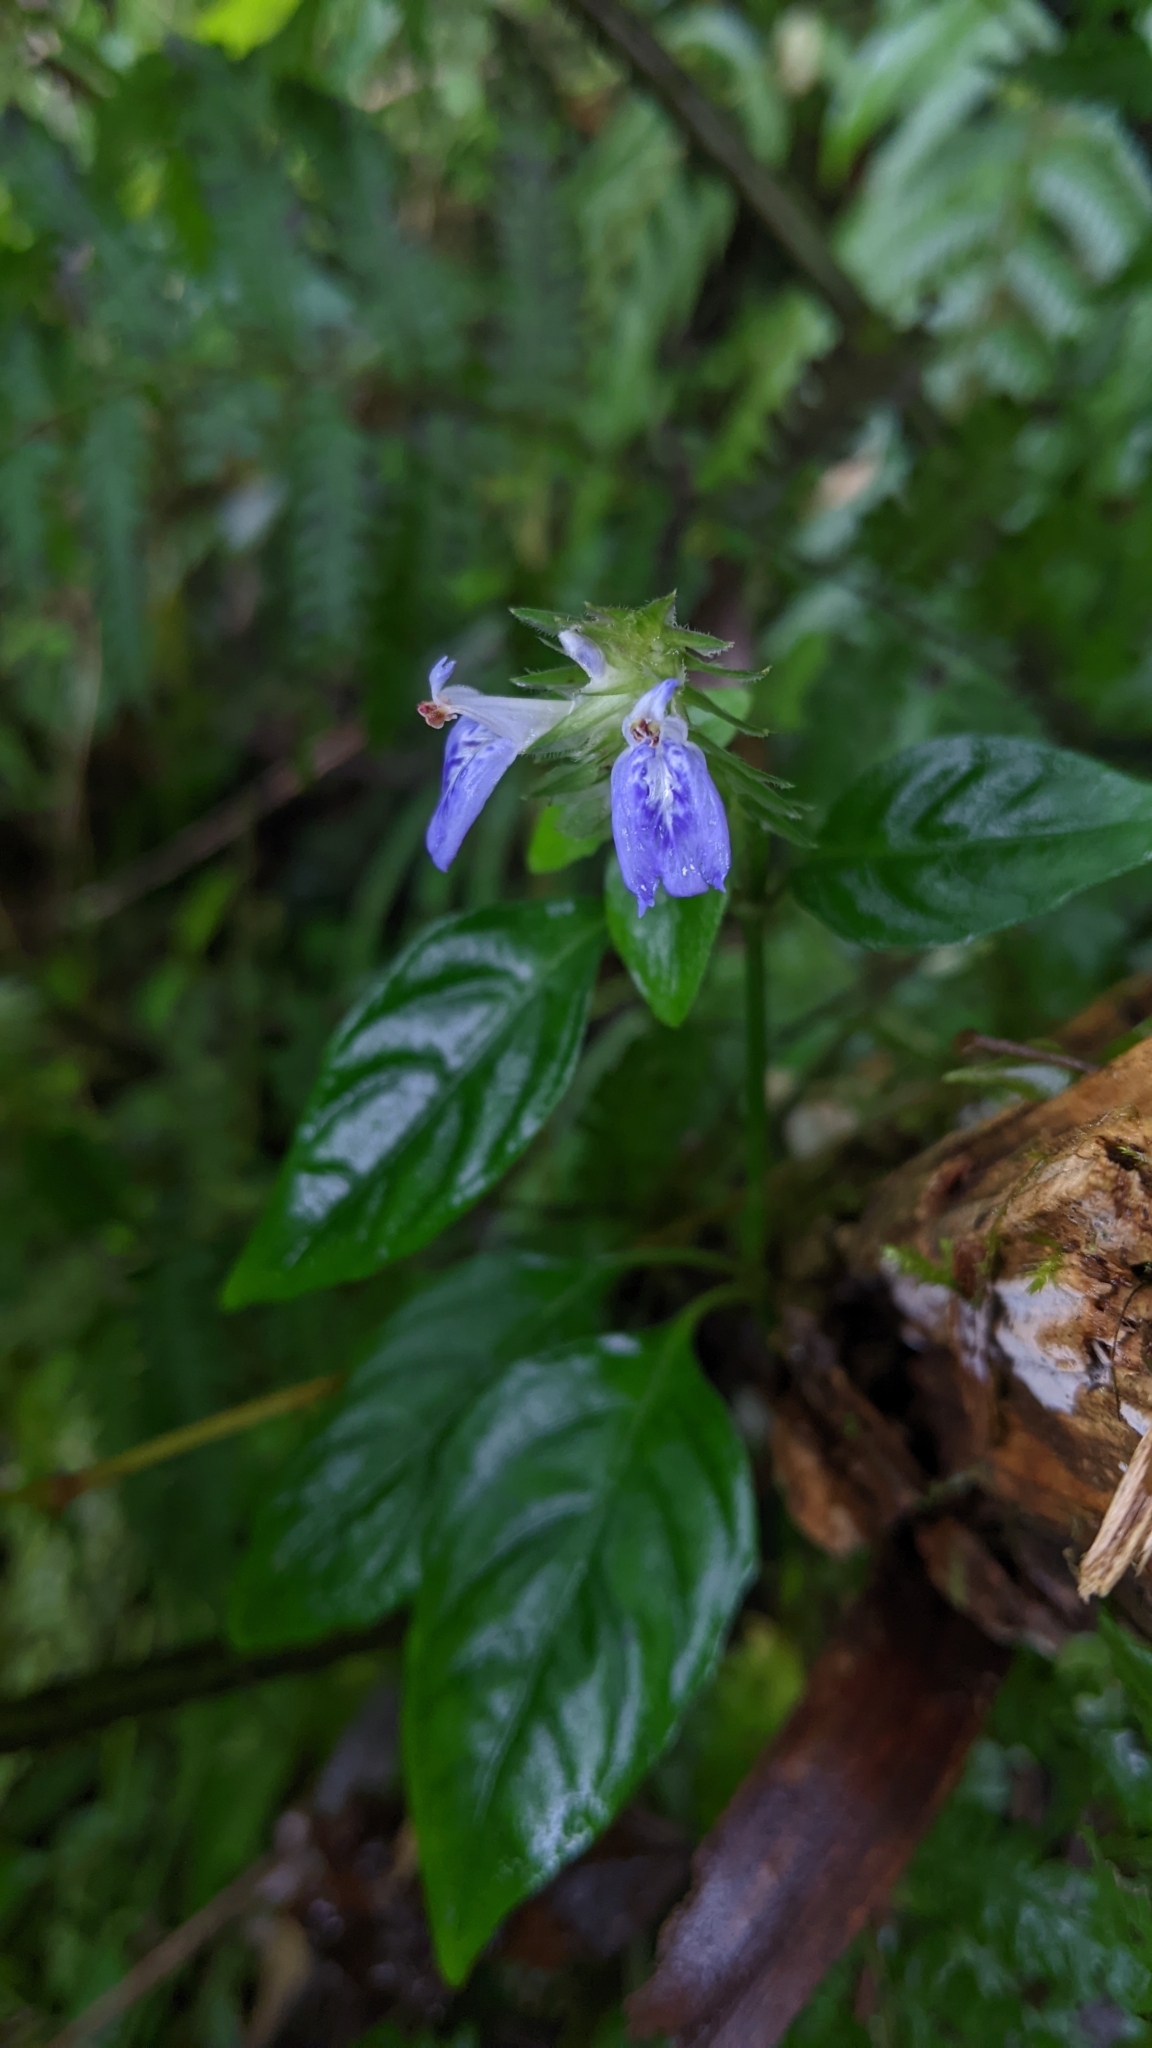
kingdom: Plantae
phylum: Tracheophyta
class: Magnoliopsida
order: Lamiales
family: Acanthaceae
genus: Rungia
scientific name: Rungia taiwanensis
